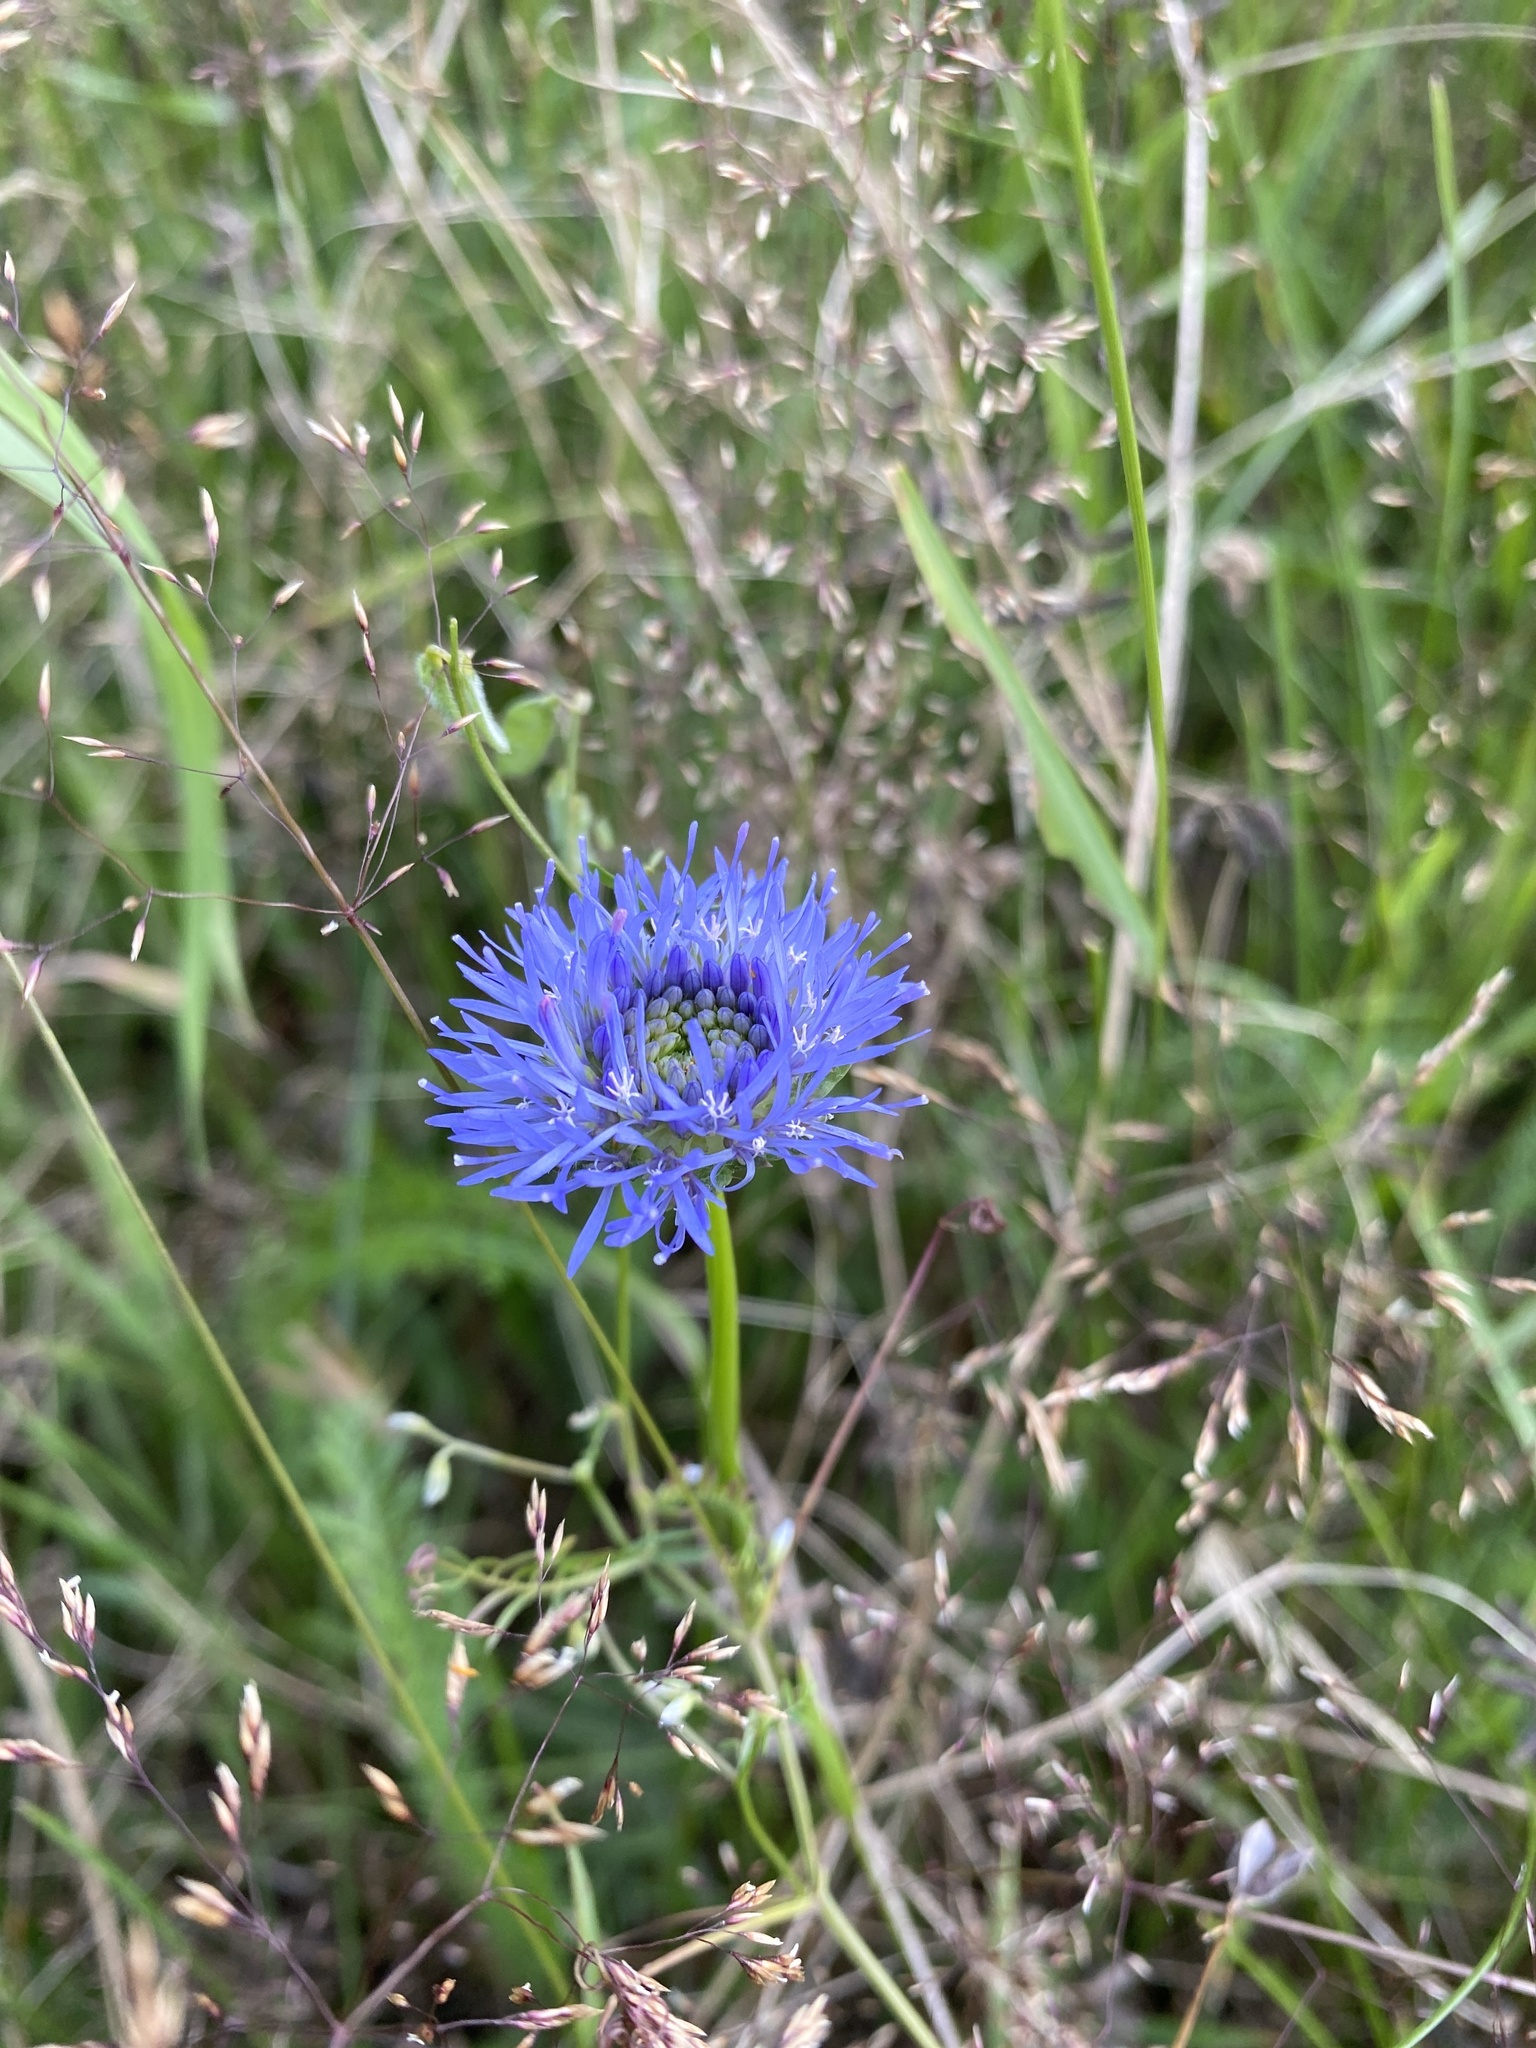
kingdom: Plantae
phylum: Tracheophyta
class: Magnoliopsida
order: Asterales
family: Campanulaceae
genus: Jasione
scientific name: Jasione montana
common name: Sheep's-bit
